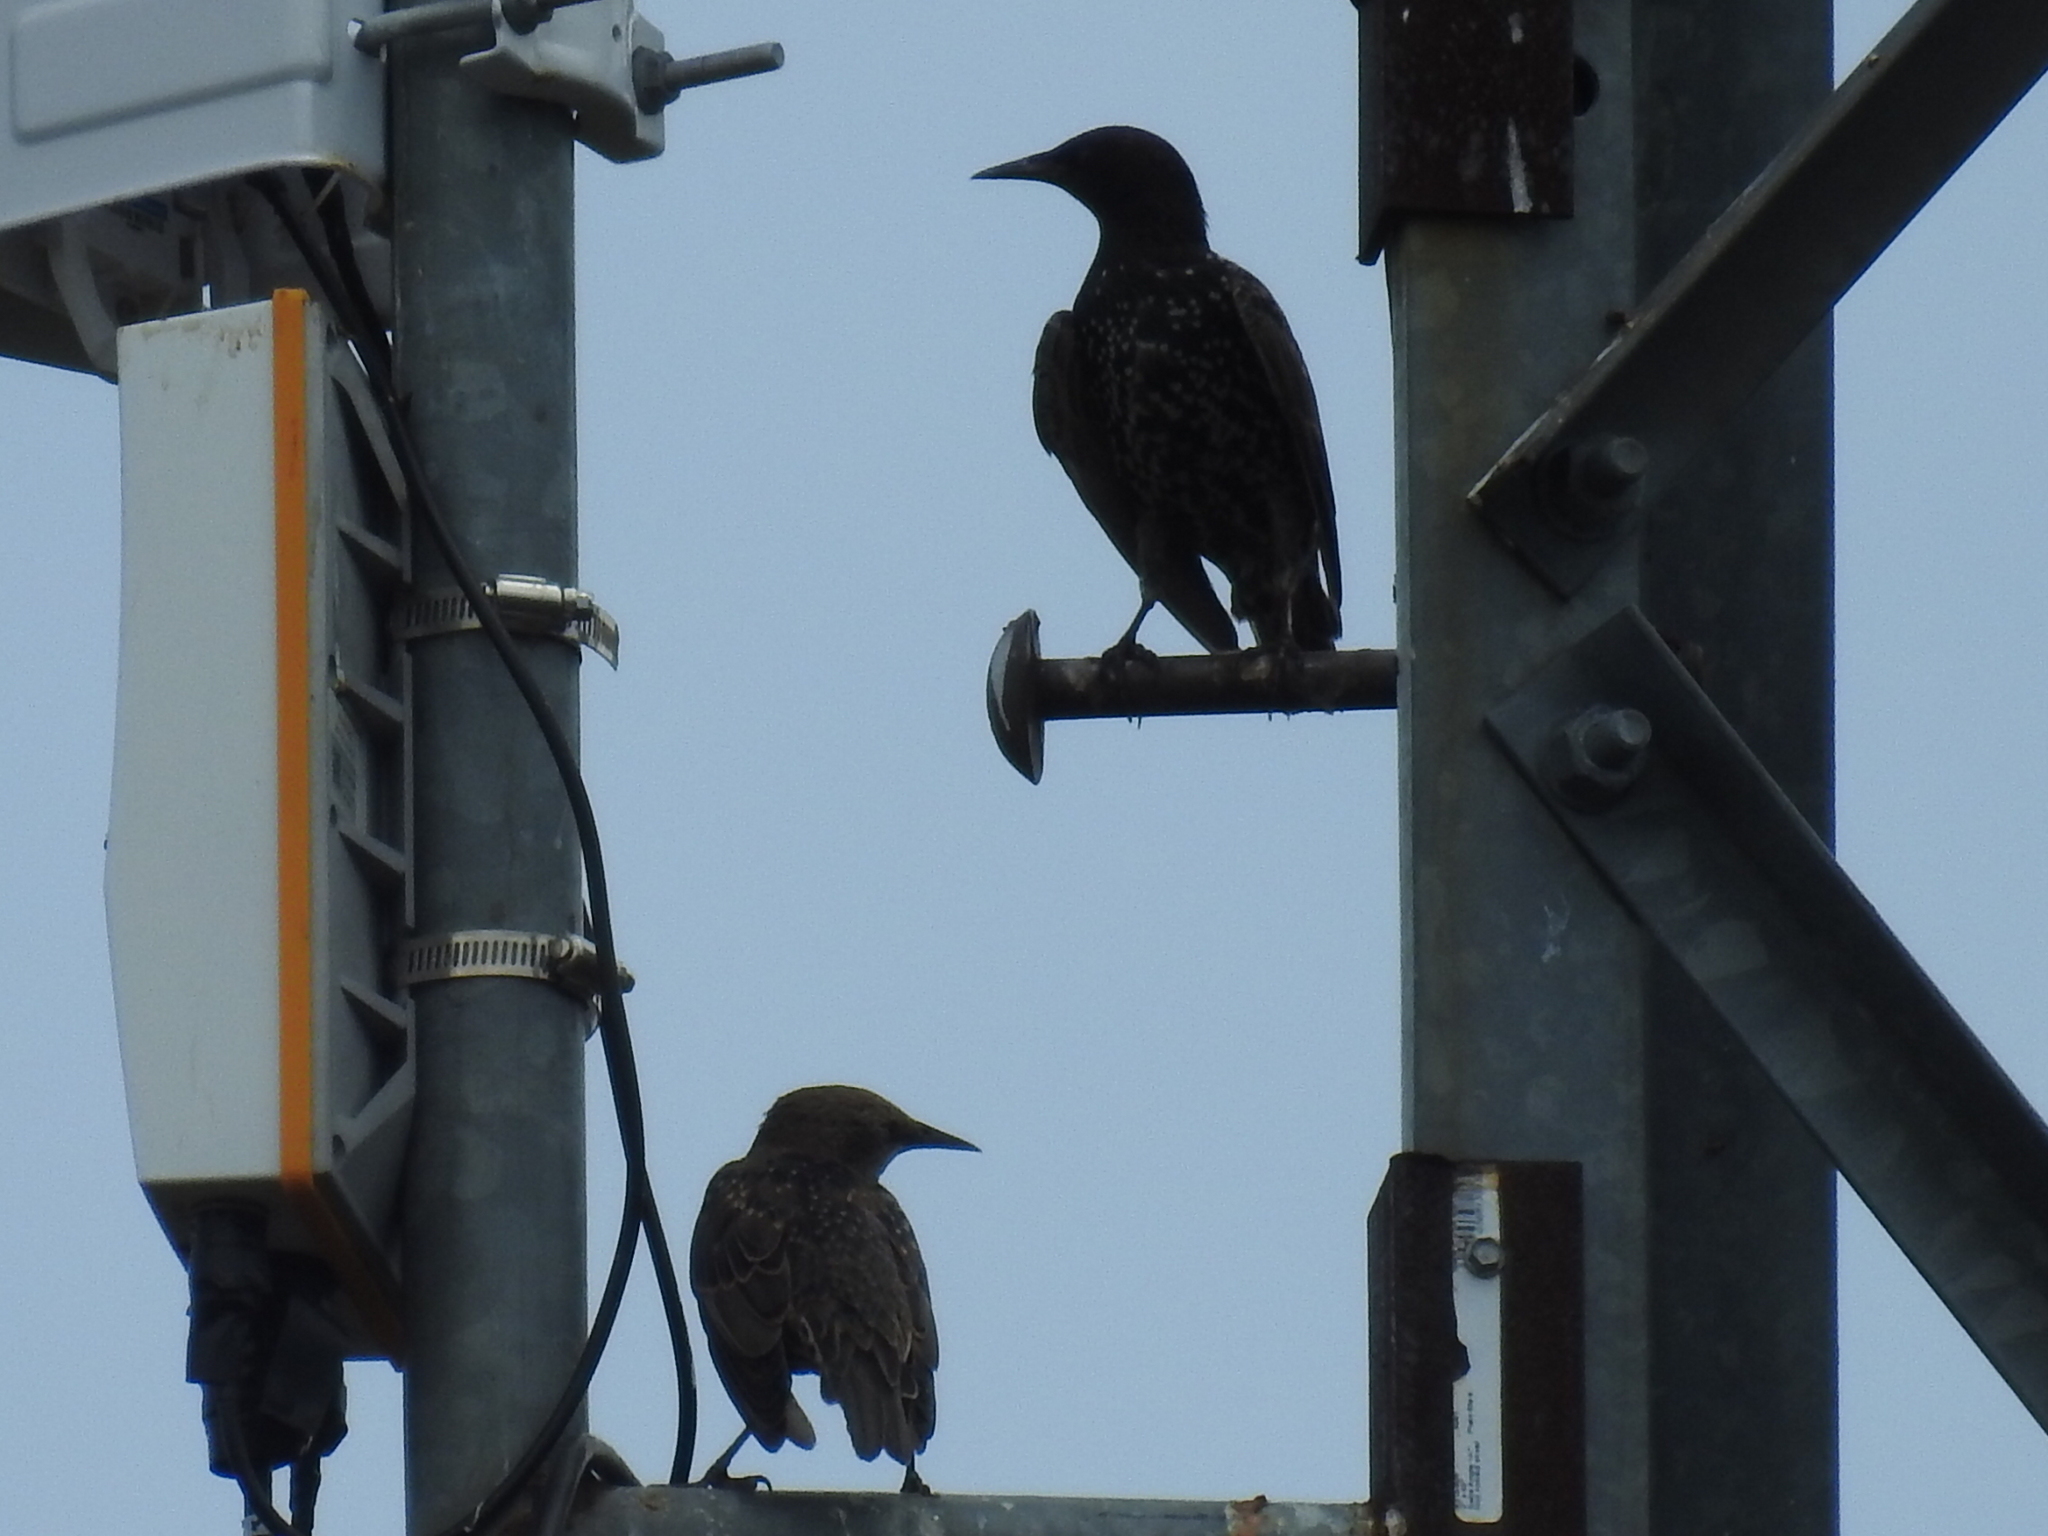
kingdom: Animalia
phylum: Chordata
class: Aves
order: Passeriformes
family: Sturnidae
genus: Sturnus
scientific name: Sturnus vulgaris
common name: Common starling
